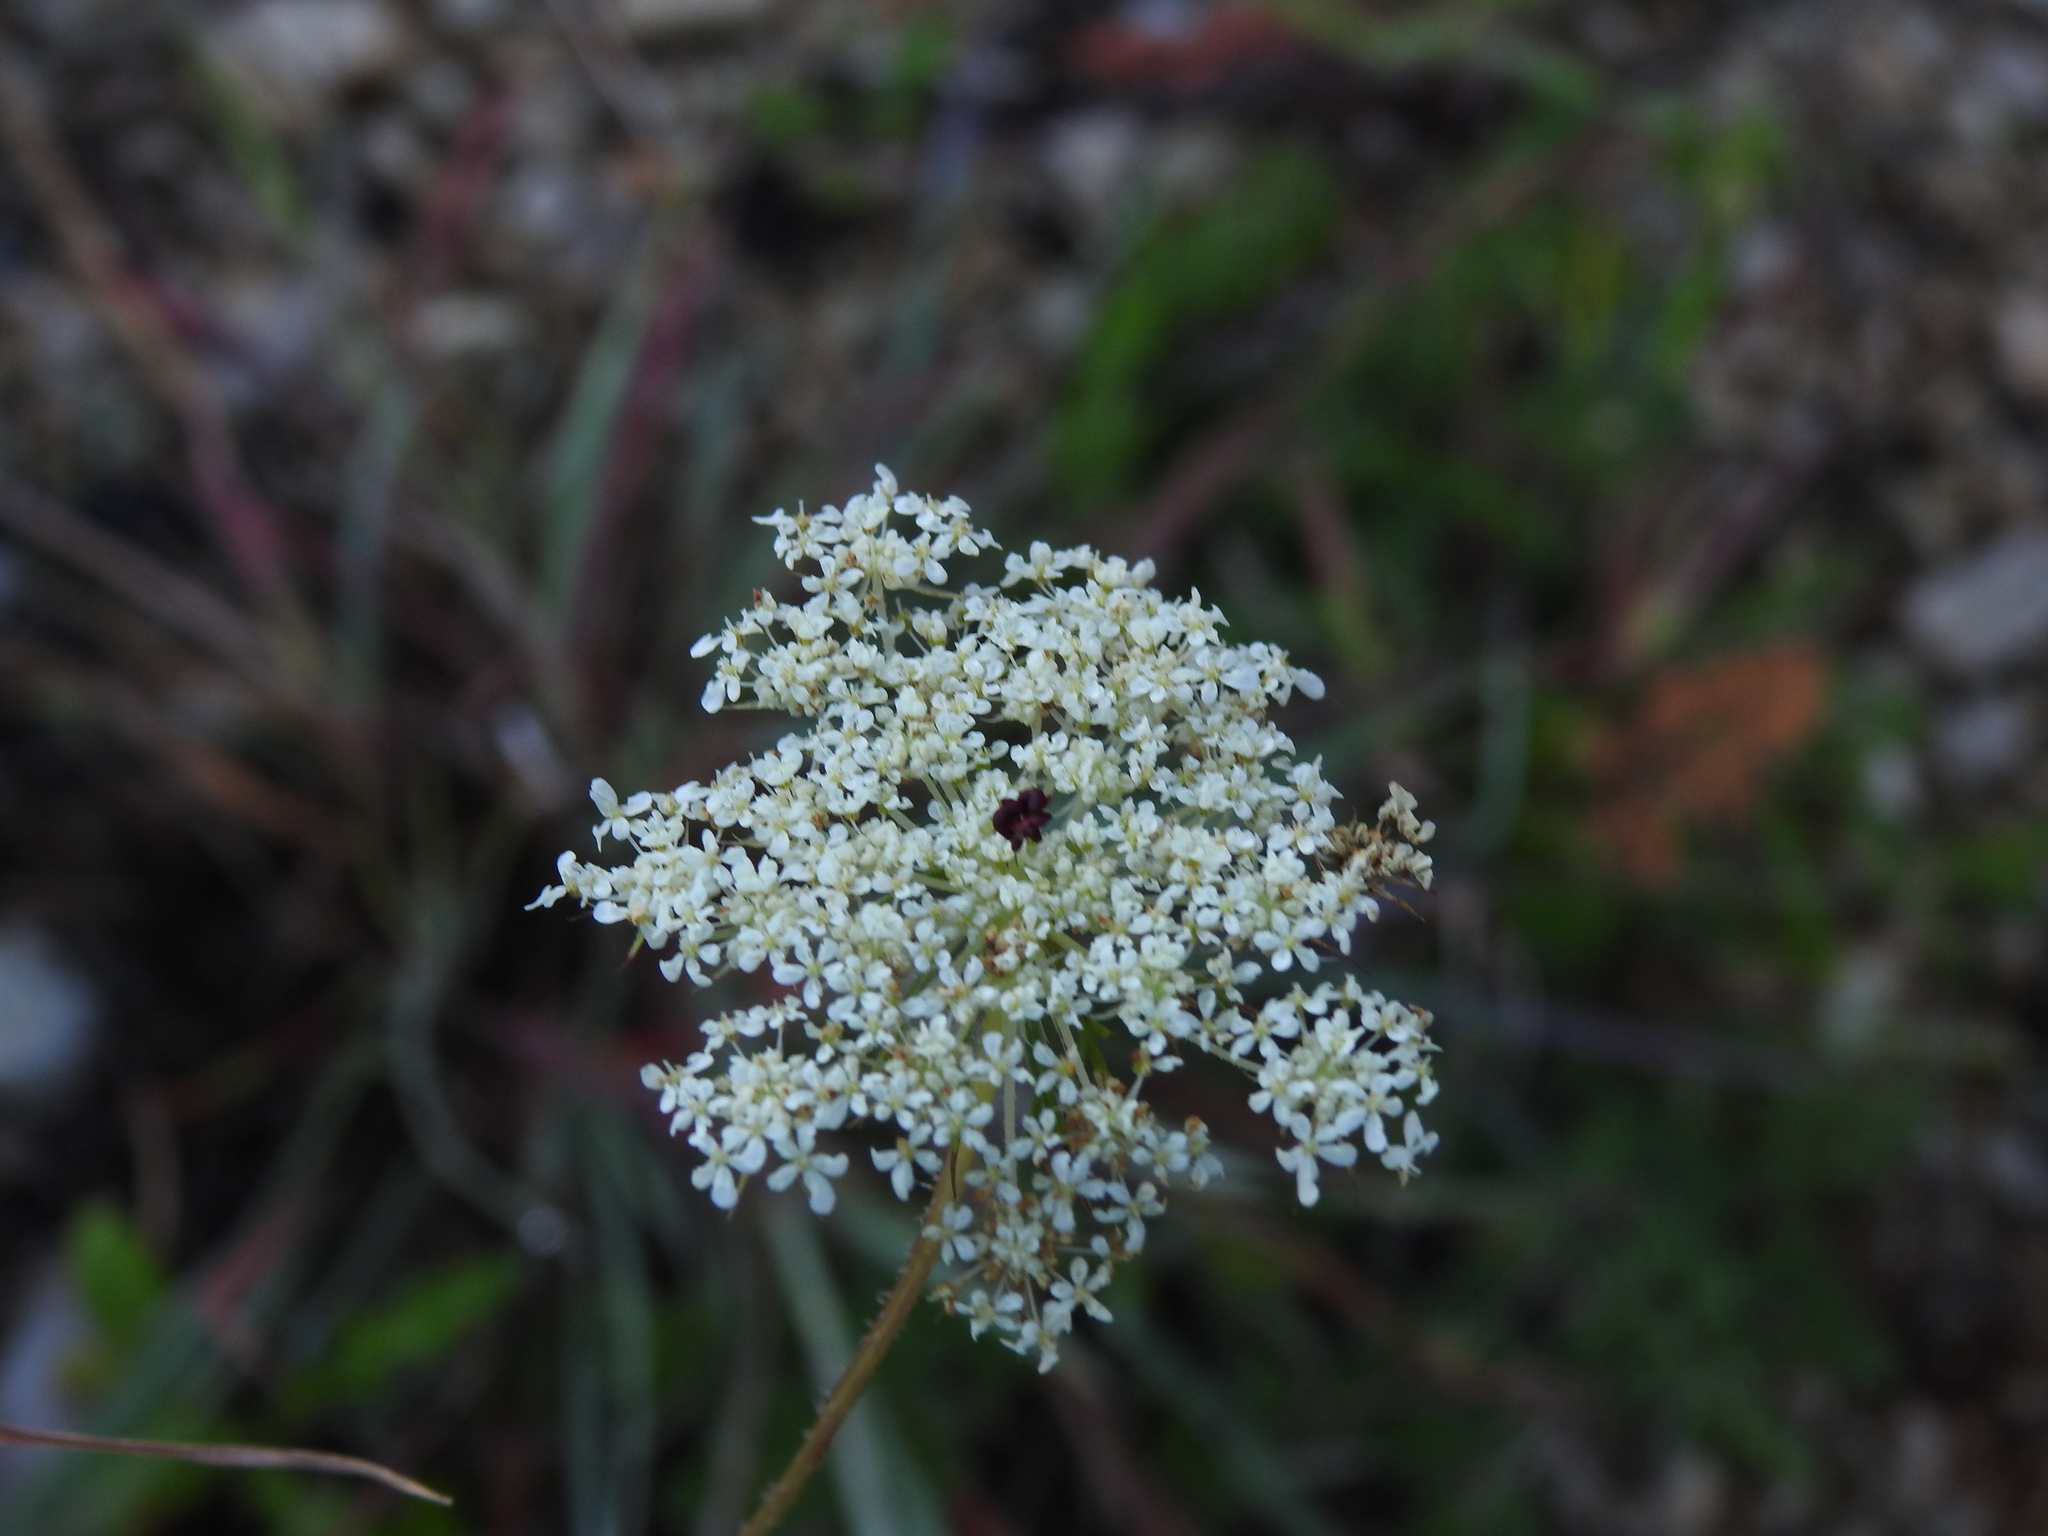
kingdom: Plantae
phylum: Tracheophyta
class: Magnoliopsida
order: Apiales
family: Apiaceae
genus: Daucus
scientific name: Daucus carota
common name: Wild carrot
